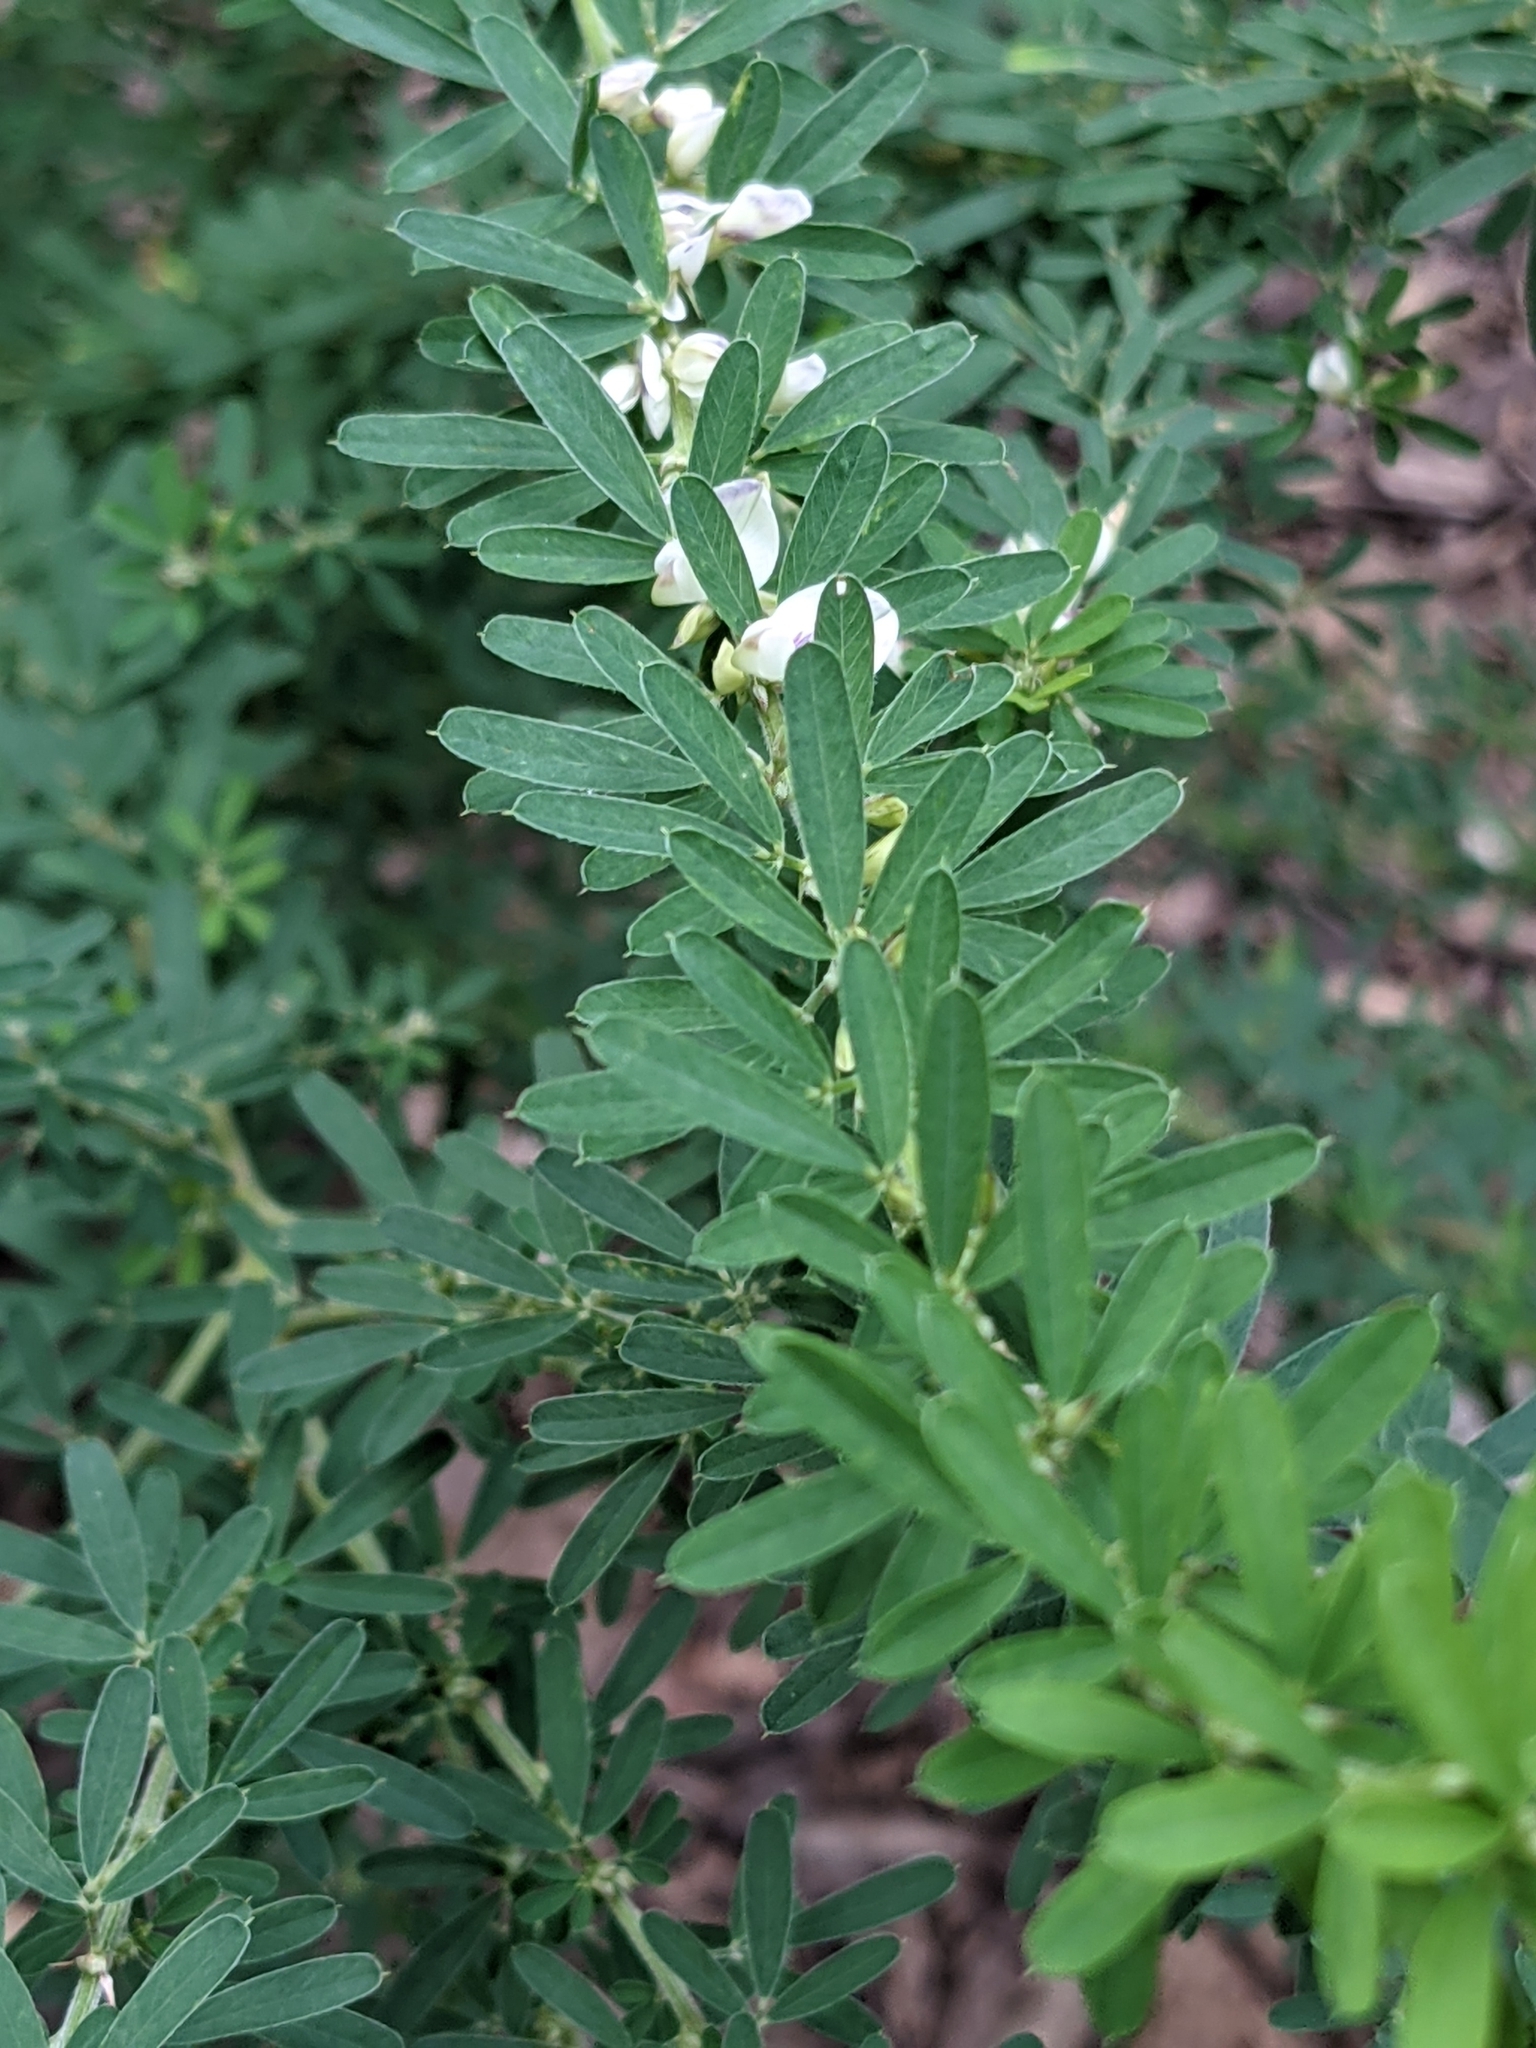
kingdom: Plantae
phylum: Tracheophyta
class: Magnoliopsida
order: Fabales
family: Fabaceae
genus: Lespedeza
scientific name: Lespedeza cuneata
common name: Chinese bush-clover
